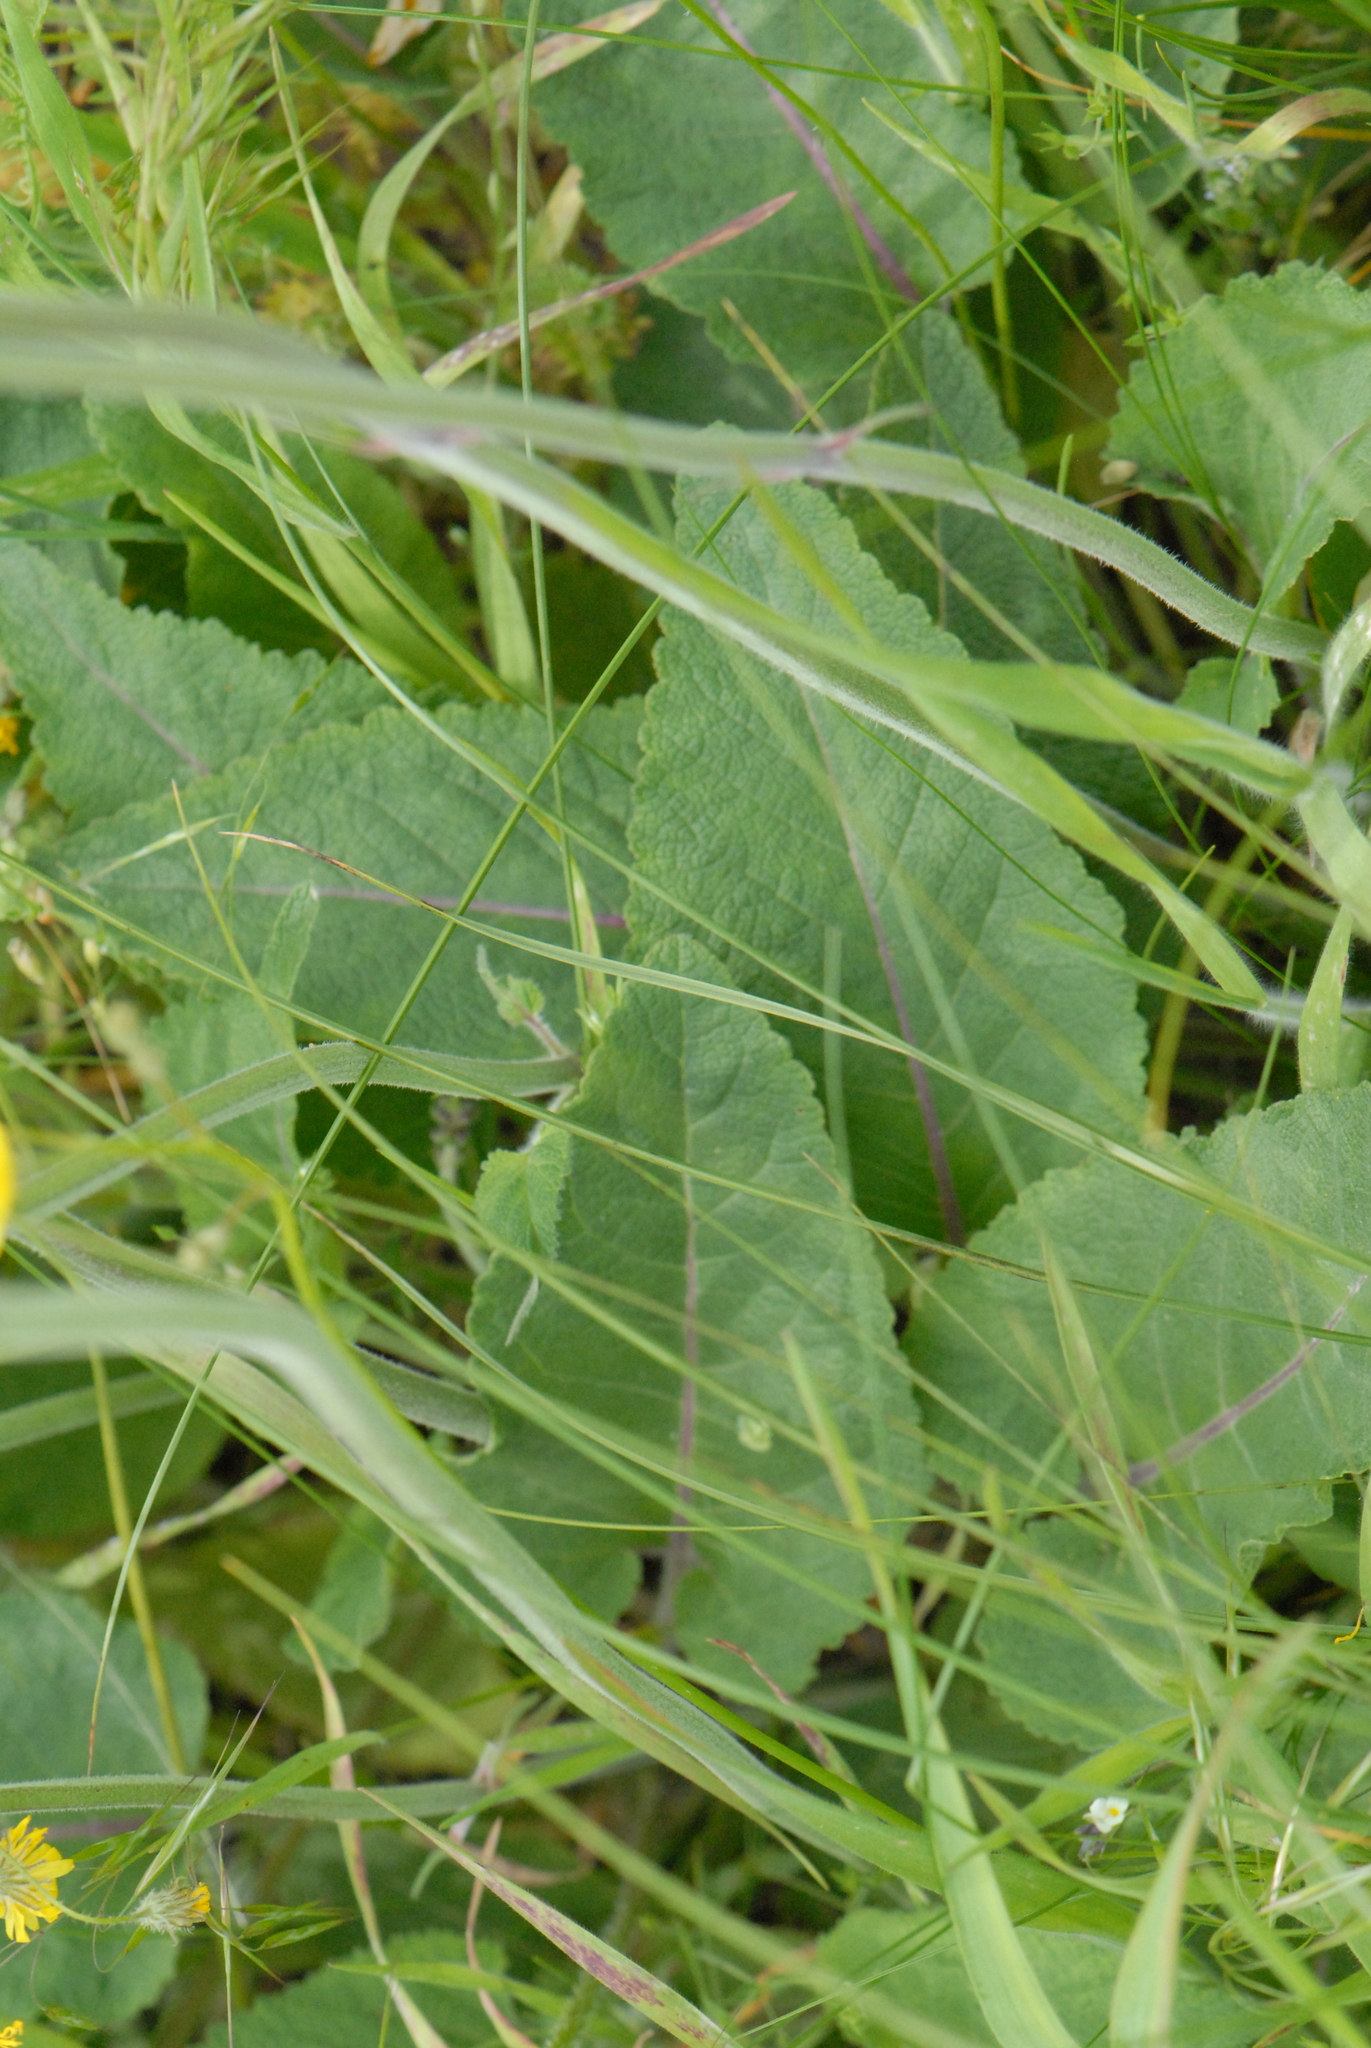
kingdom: Plantae
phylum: Tracheophyta
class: Magnoliopsida
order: Lamiales
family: Lamiaceae
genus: Salvia
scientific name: Salvia nutans
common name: Nodding sage
